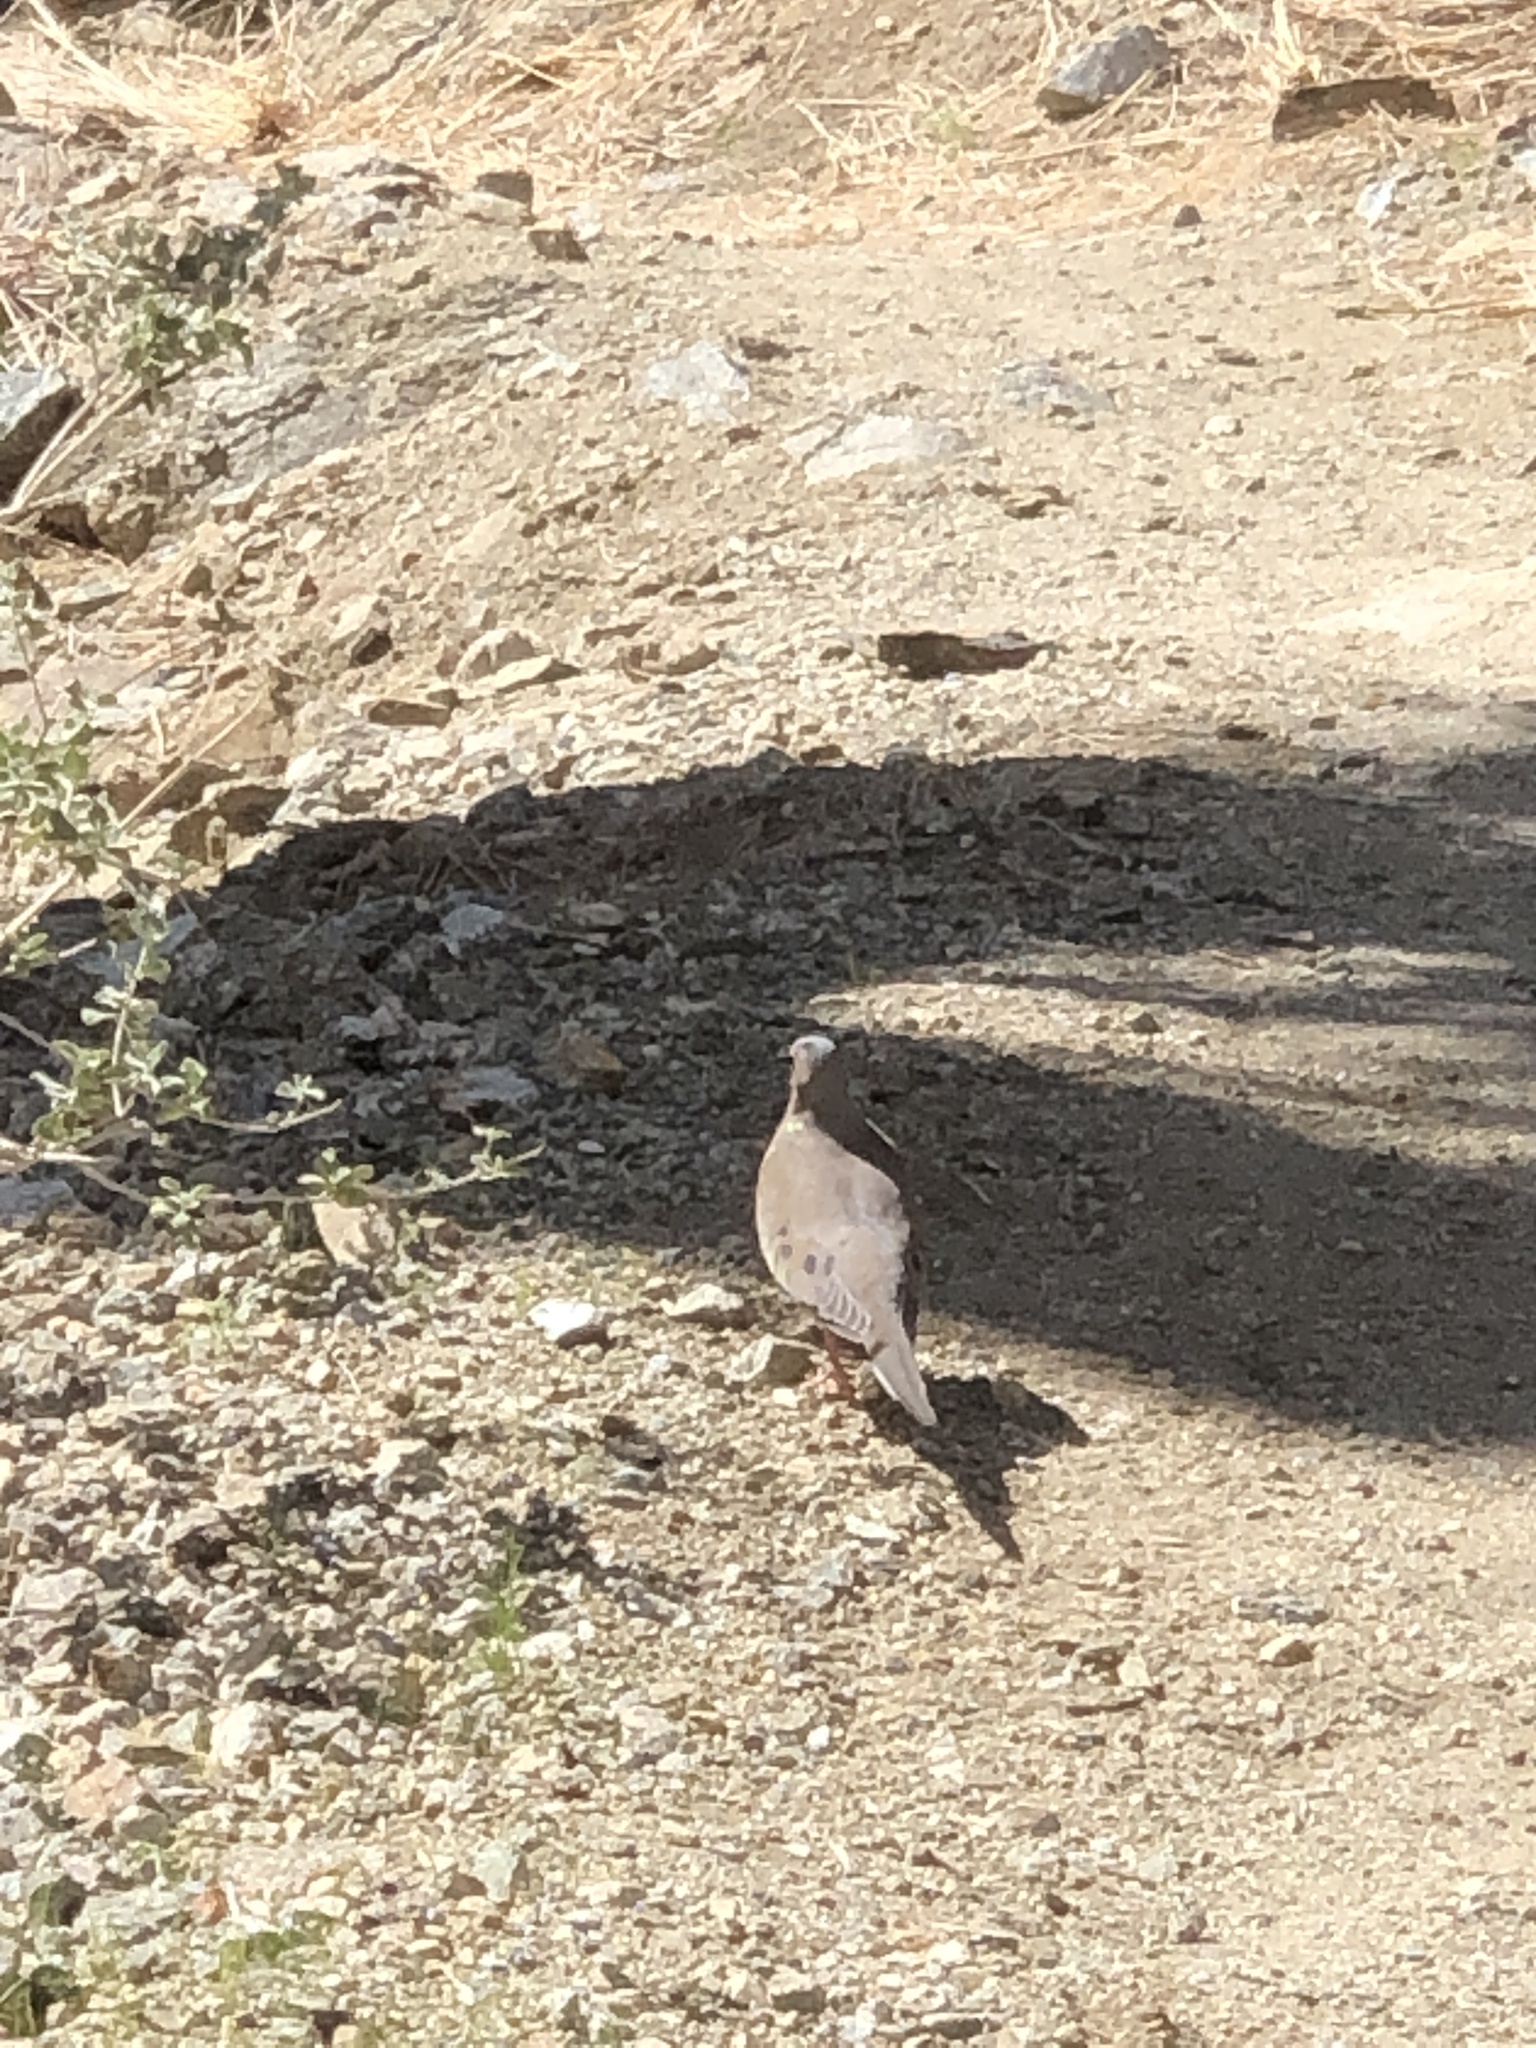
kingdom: Animalia
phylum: Chordata
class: Aves
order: Columbiformes
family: Columbidae
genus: Zenaida
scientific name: Zenaida macroura
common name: Mourning dove
